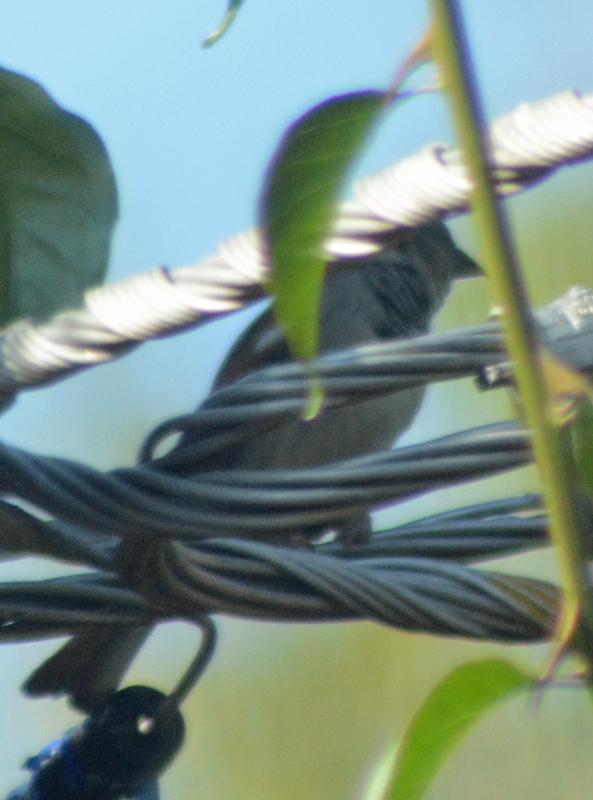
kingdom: Animalia
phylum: Chordata
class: Aves
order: Passeriformes
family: Passeridae
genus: Passer
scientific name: Passer domesticus
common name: House sparrow
